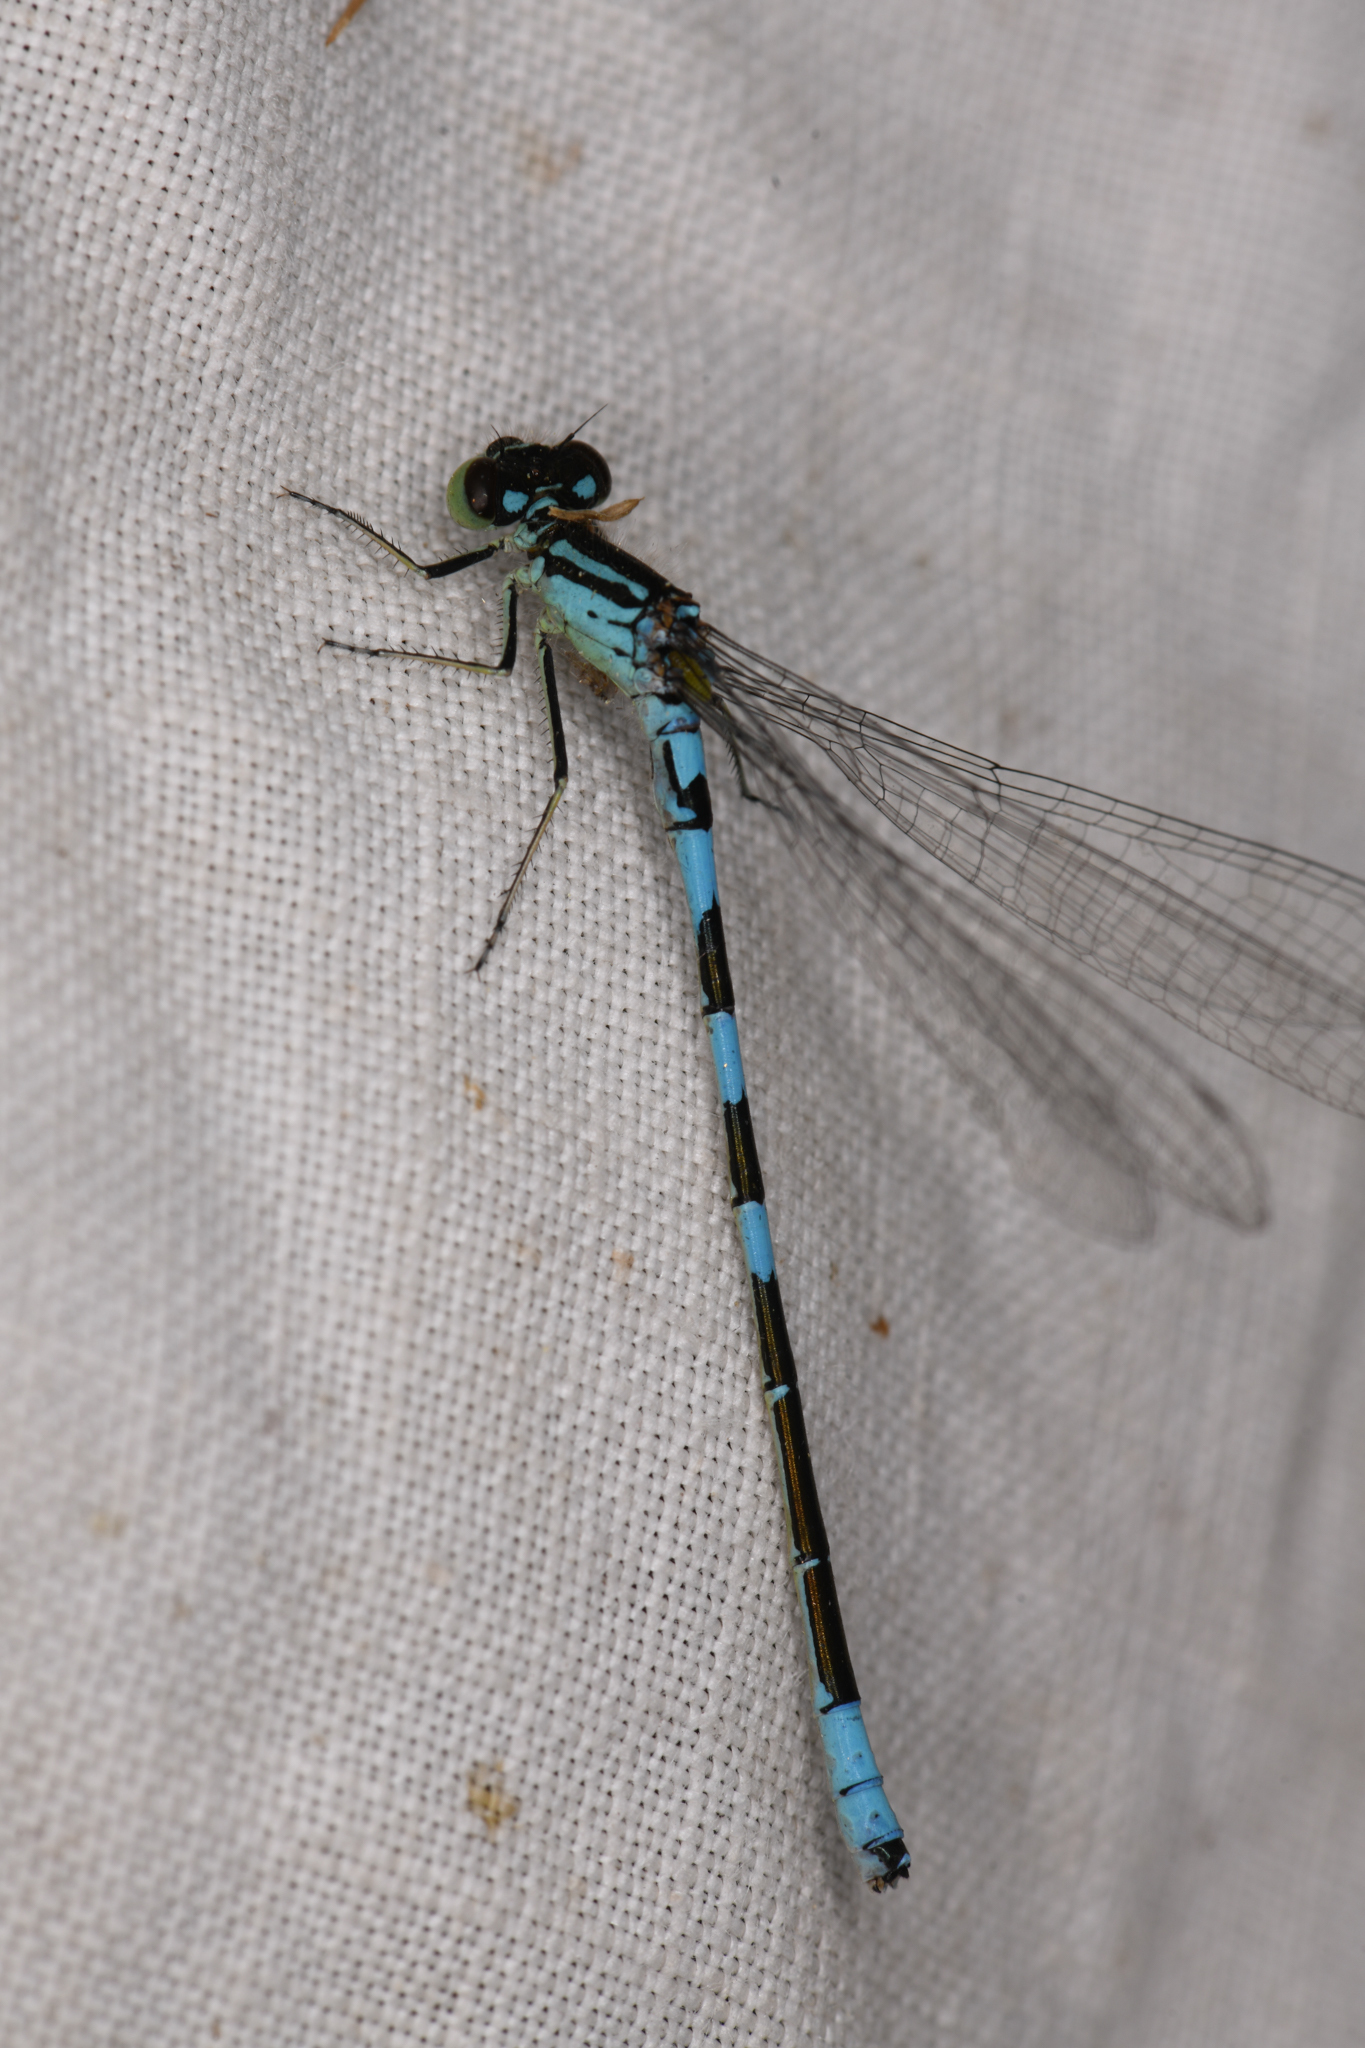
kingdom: Animalia
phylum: Arthropoda
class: Insecta
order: Odonata
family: Coenagrionidae
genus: Coenagrion
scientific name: Coenagrion resolutum
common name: Taiga bluet
